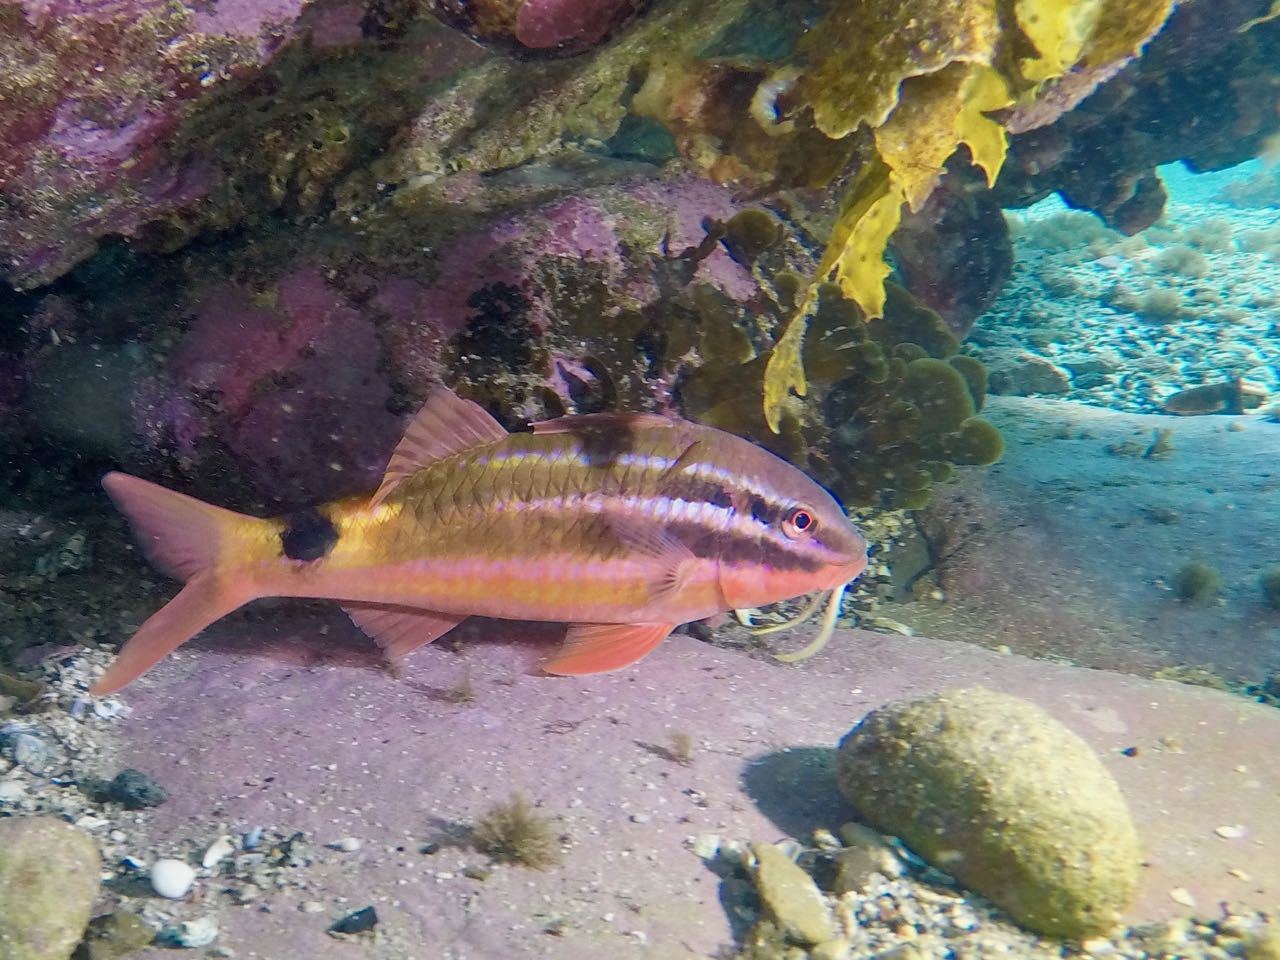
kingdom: Animalia
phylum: Chordata
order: Perciformes
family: Mullidae
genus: Parupeneus
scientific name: Parupeneus spilurus
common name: Blackspot goatfish
